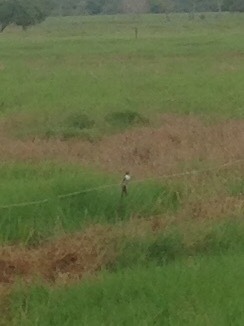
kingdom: Animalia
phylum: Chordata
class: Aves
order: Passeriformes
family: Tyrannidae
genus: Tyrannus
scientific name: Tyrannus savana
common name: Fork-tailed flycatcher
